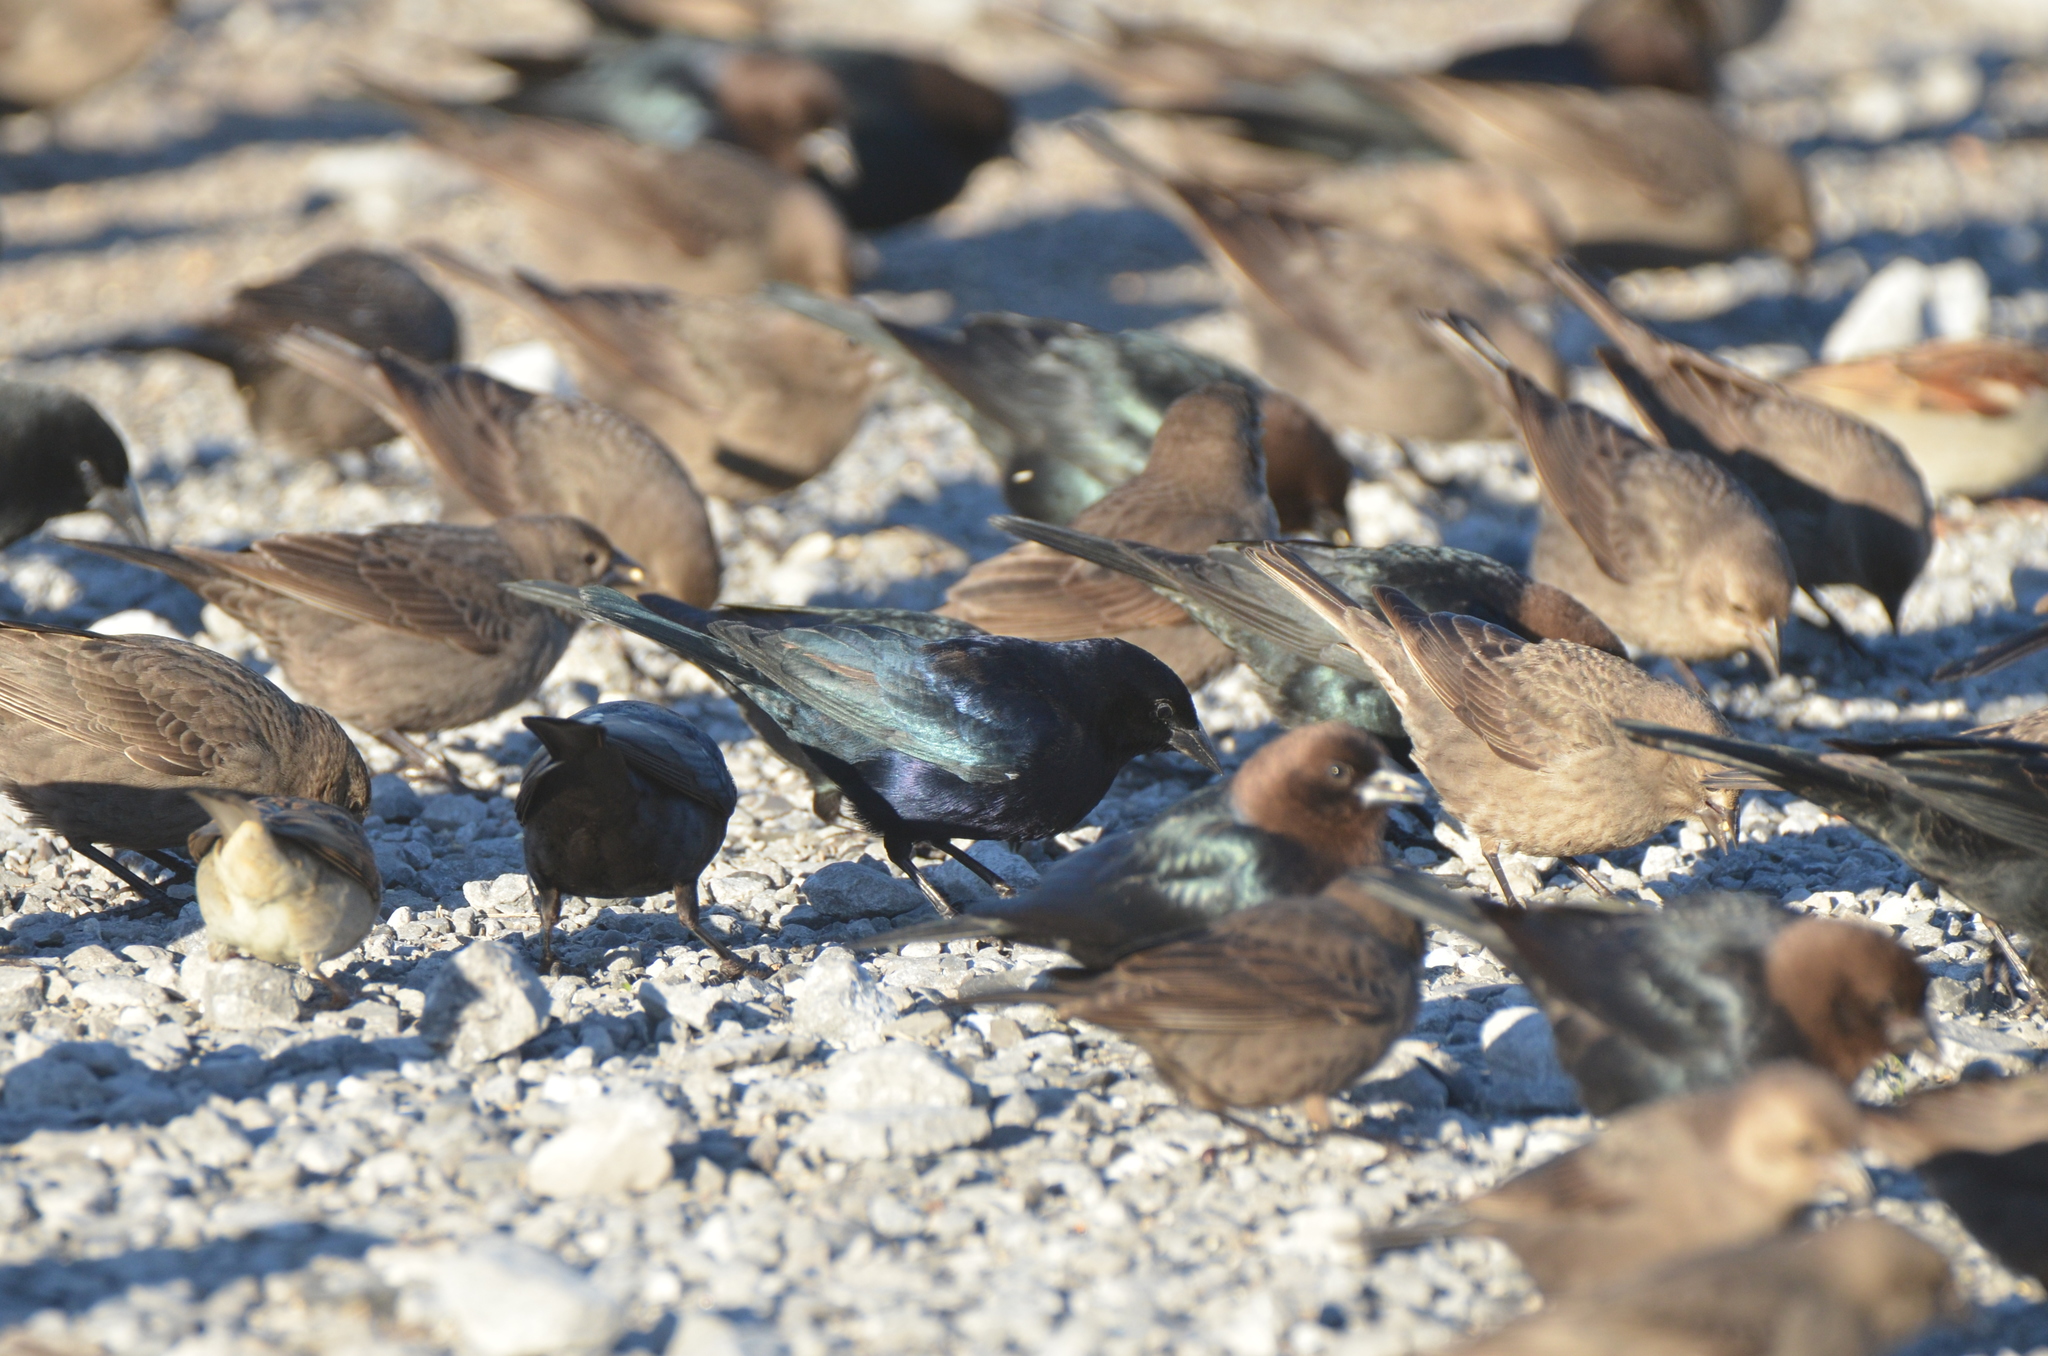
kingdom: Animalia
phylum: Chordata
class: Aves
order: Passeriformes
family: Icteridae
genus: Molothrus
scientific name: Molothrus bonariensis
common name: Shiny cowbird
